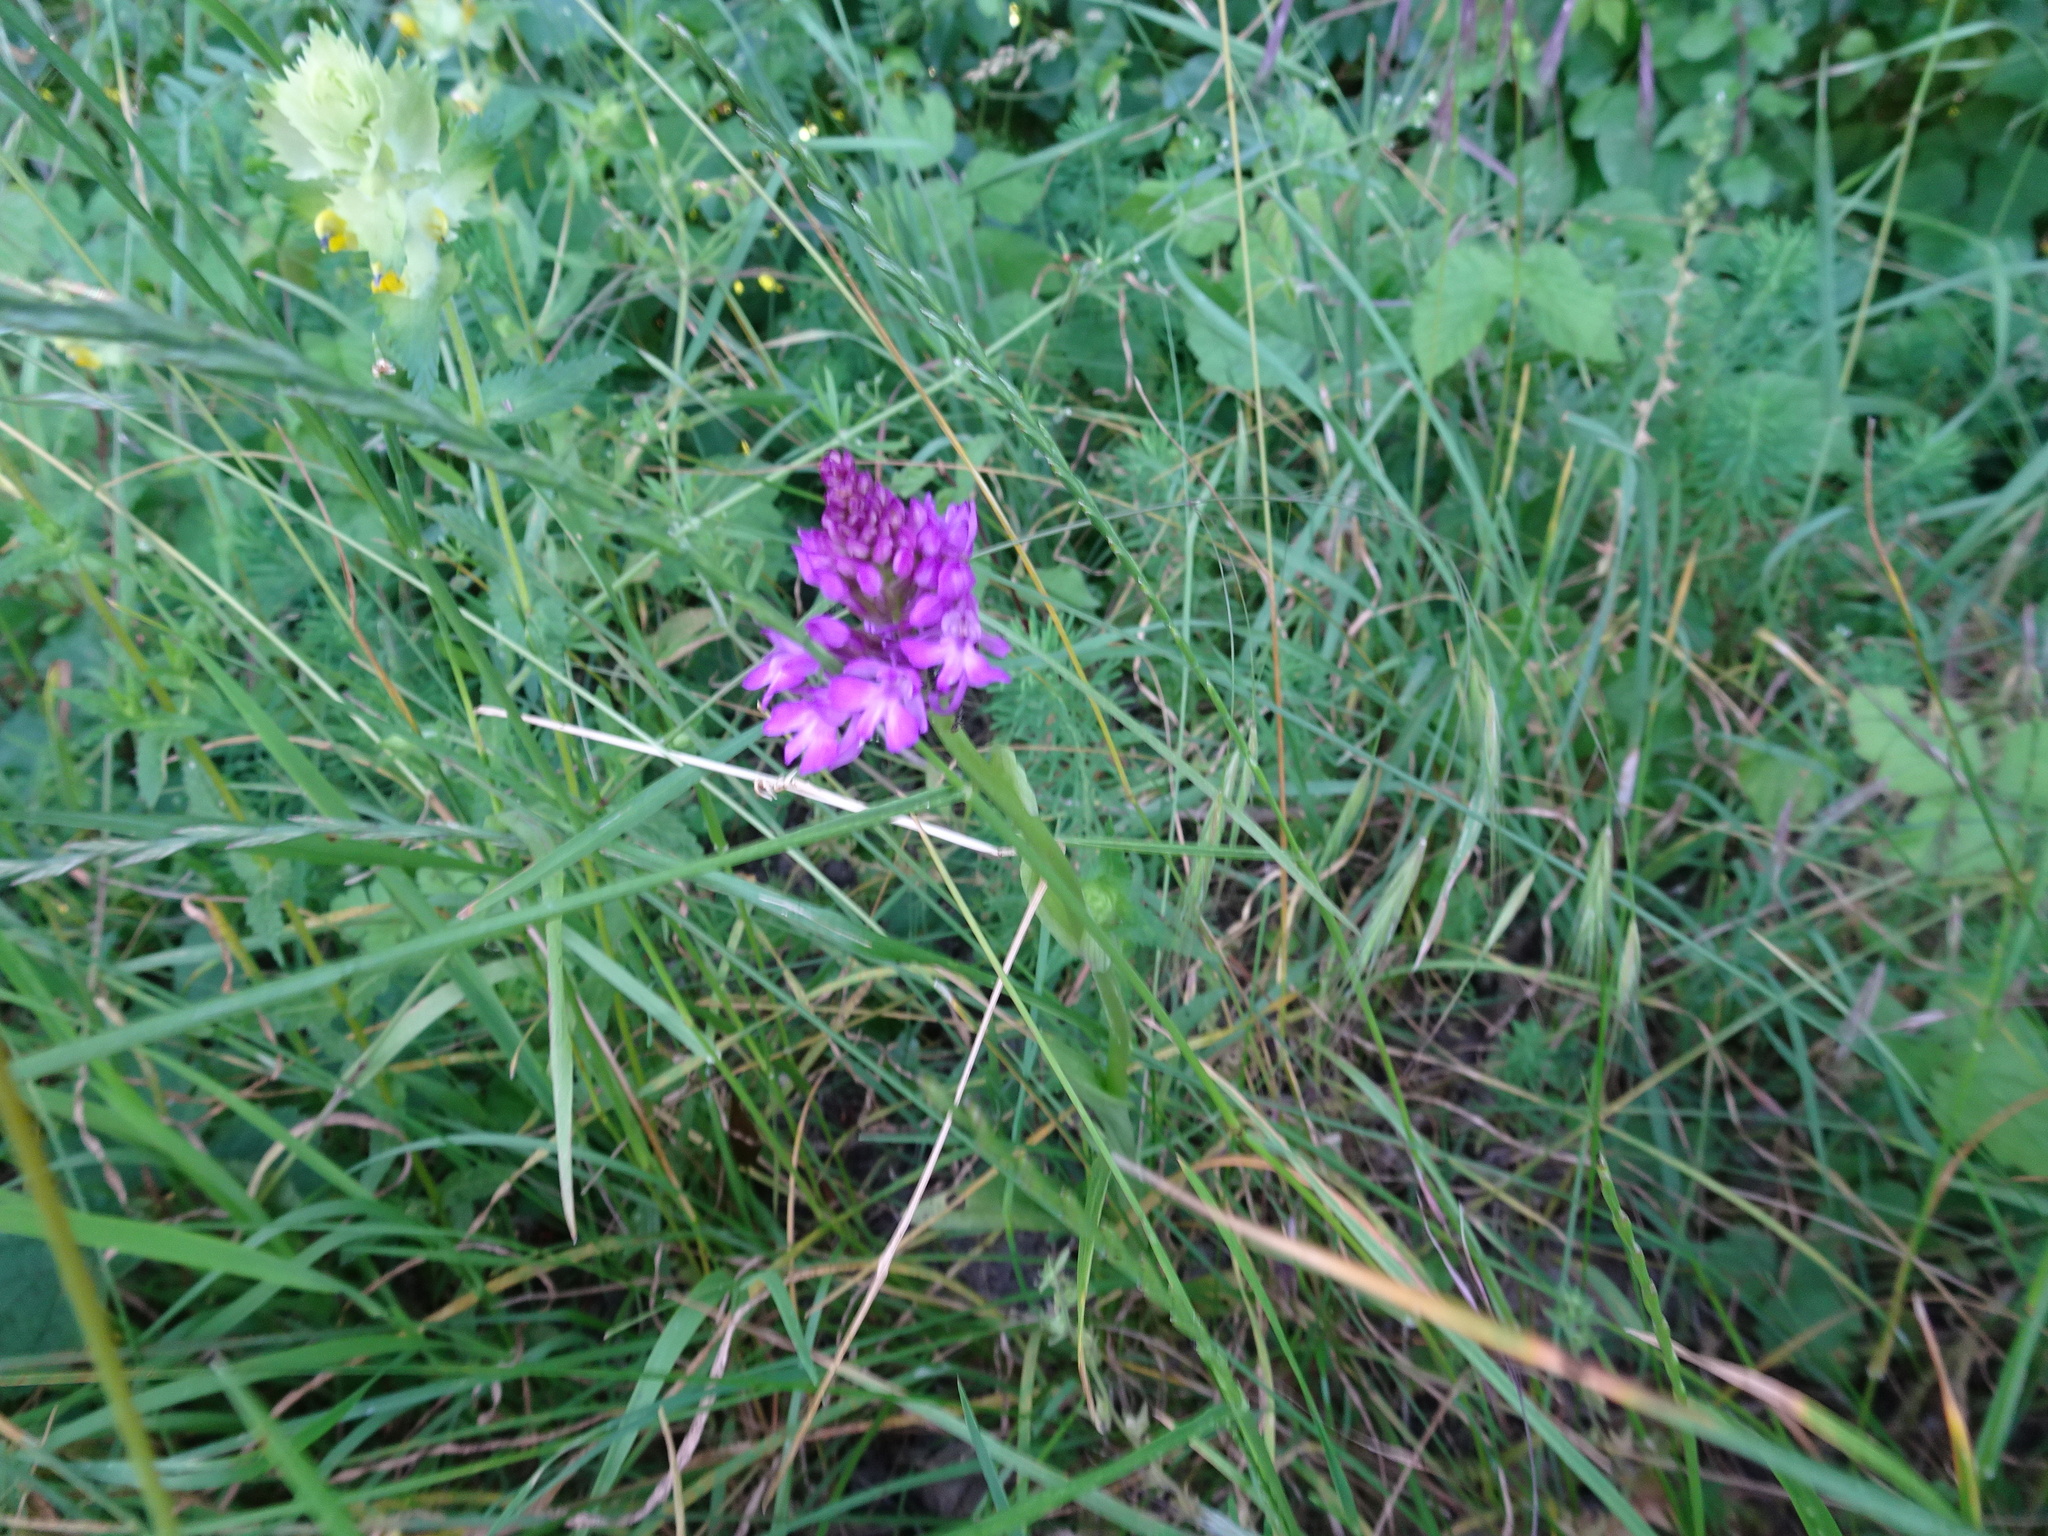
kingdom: Plantae
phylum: Tracheophyta
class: Liliopsida
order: Asparagales
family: Orchidaceae
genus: Anacamptis
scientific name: Anacamptis pyramidalis
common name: Pyramidal orchid
